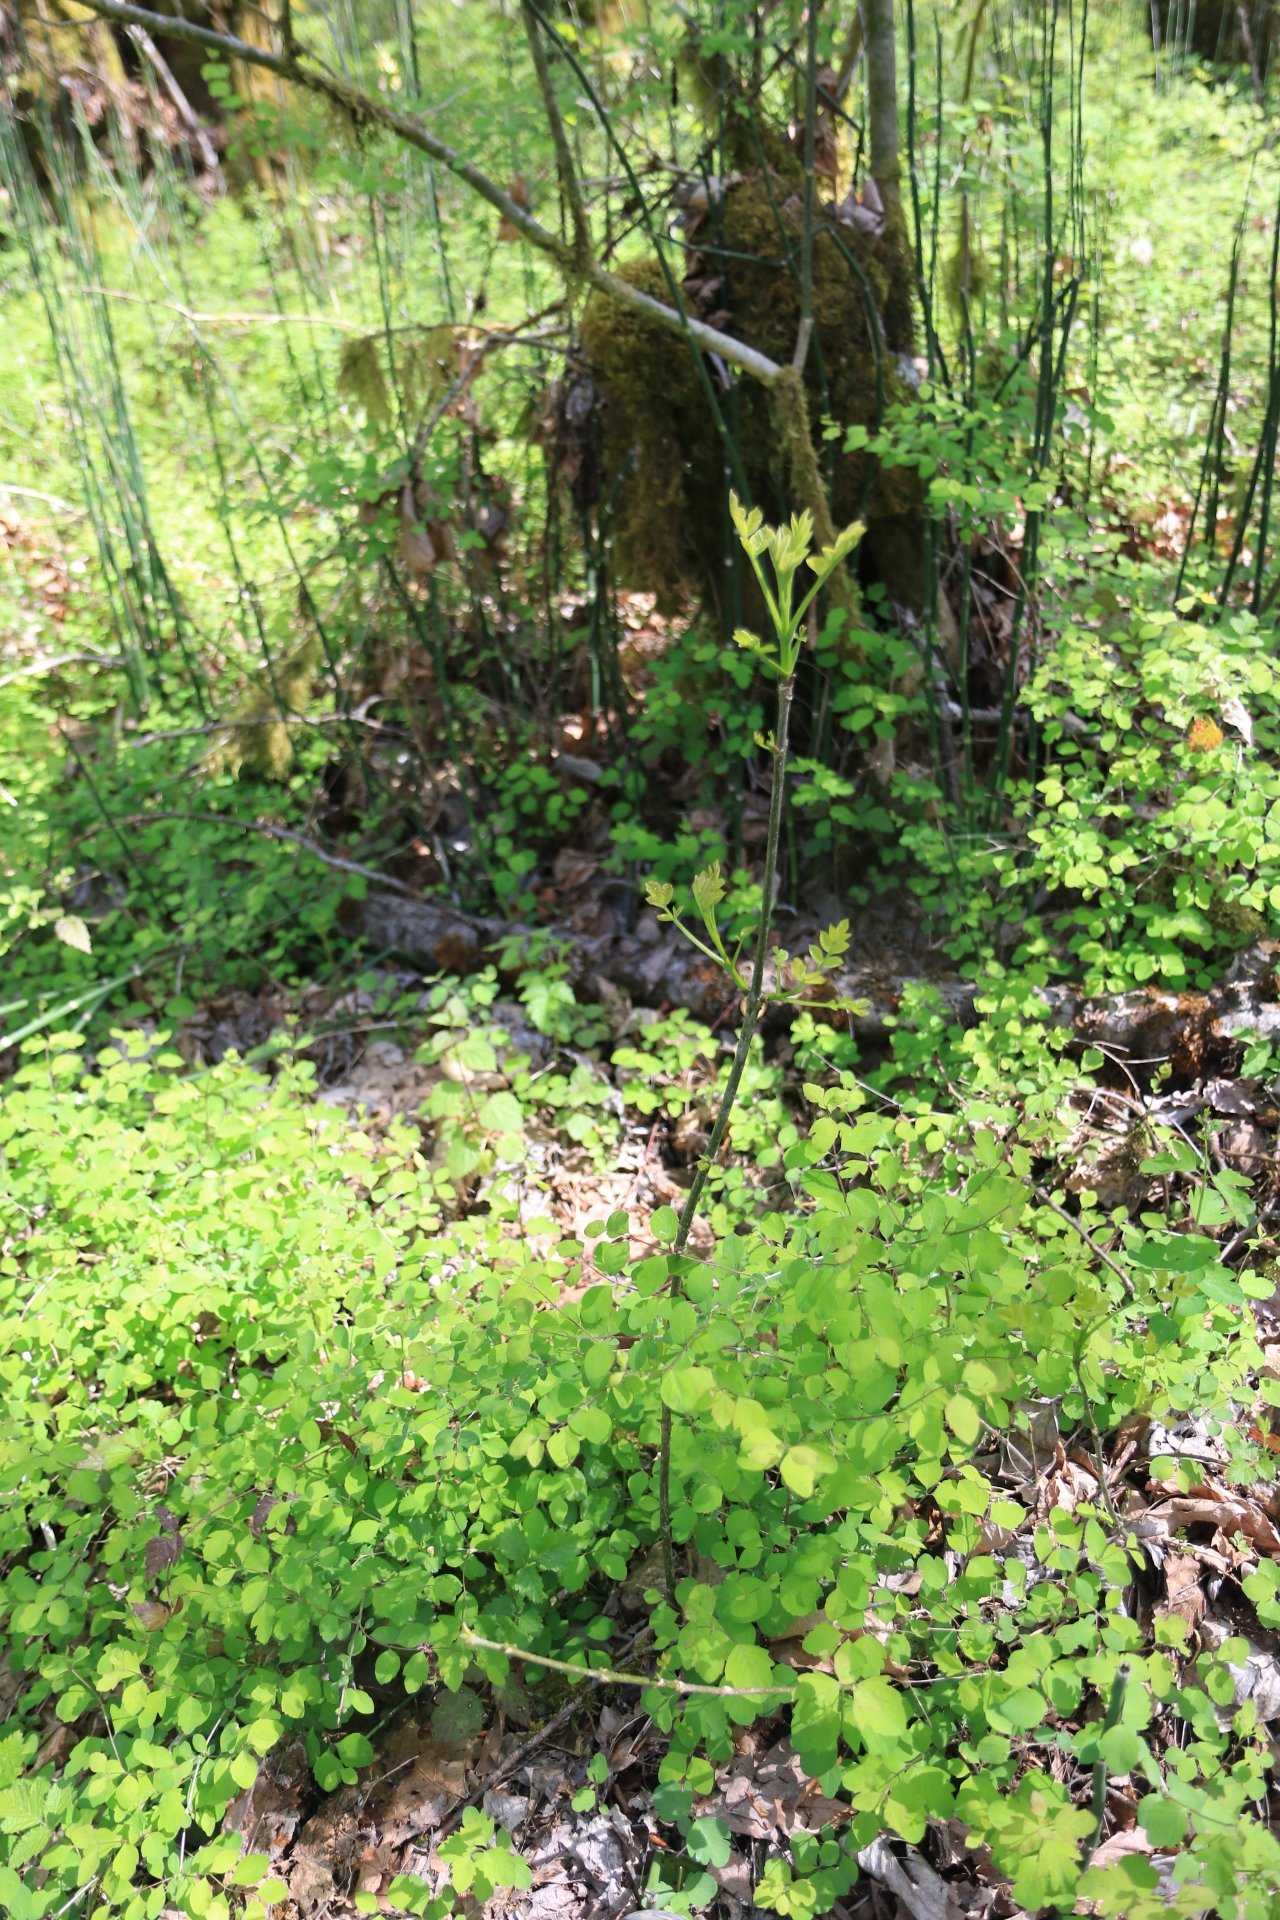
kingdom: Plantae
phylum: Tracheophyta
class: Magnoliopsida
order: Lamiales
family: Oleaceae
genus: Fraxinus
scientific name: Fraxinus latifolia
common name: Oregon ash
